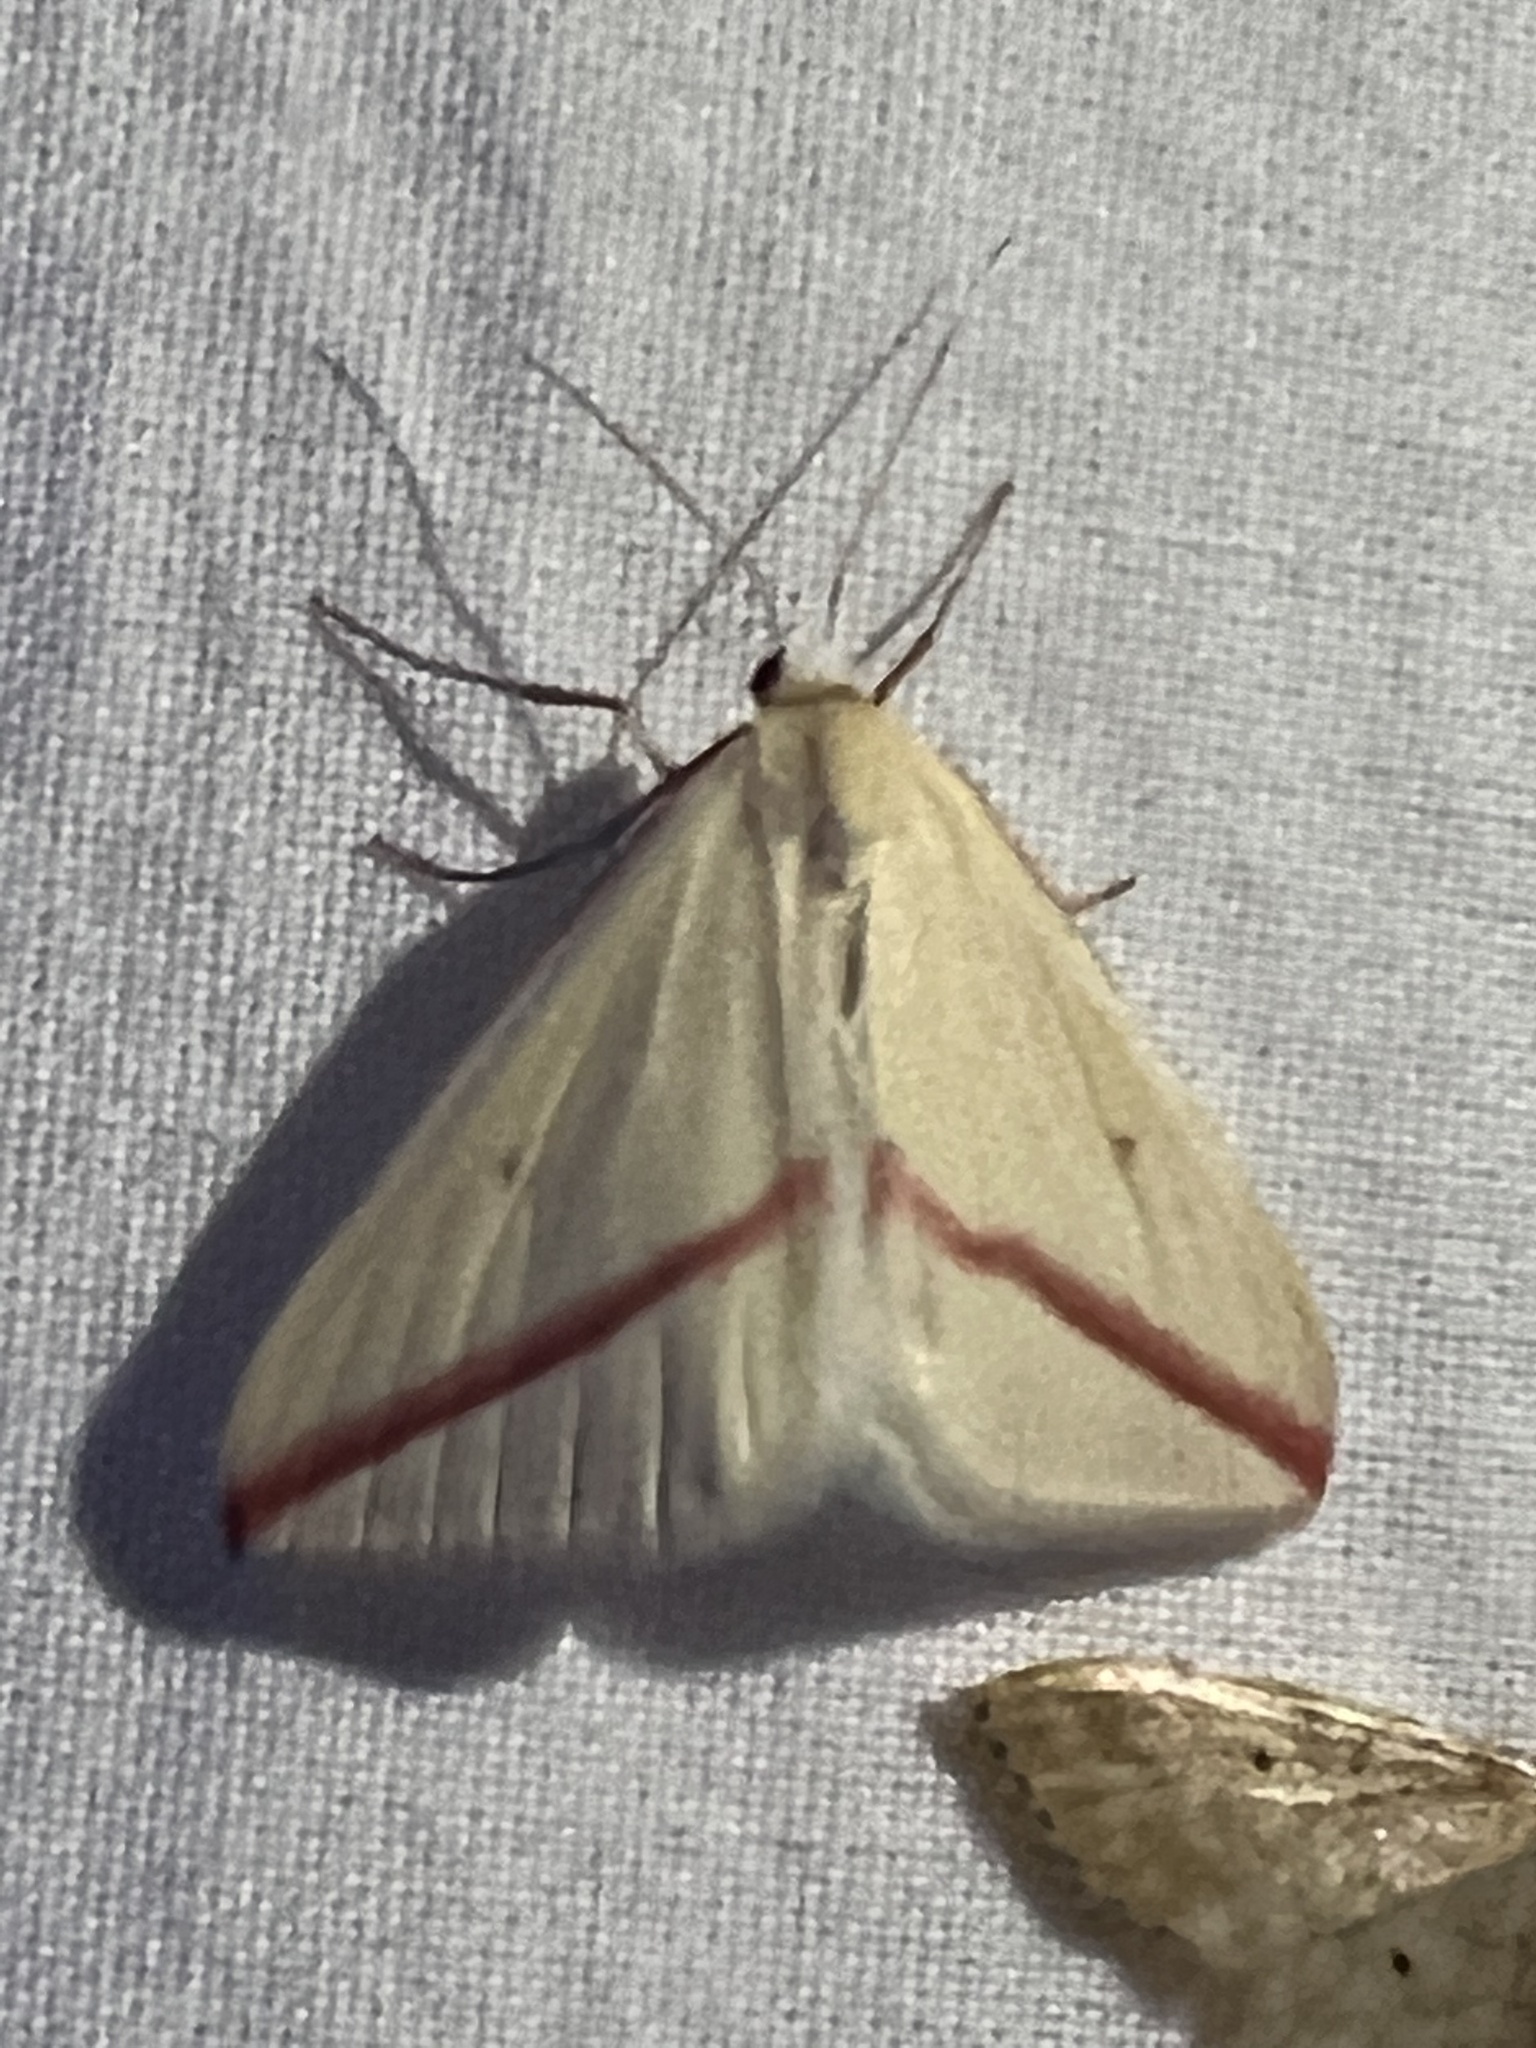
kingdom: Animalia
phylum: Arthropoda
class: Insecta
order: Lepidoptera
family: Geometridae
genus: Rhodometra
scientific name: Rhodometra sacraria
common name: Vestal
